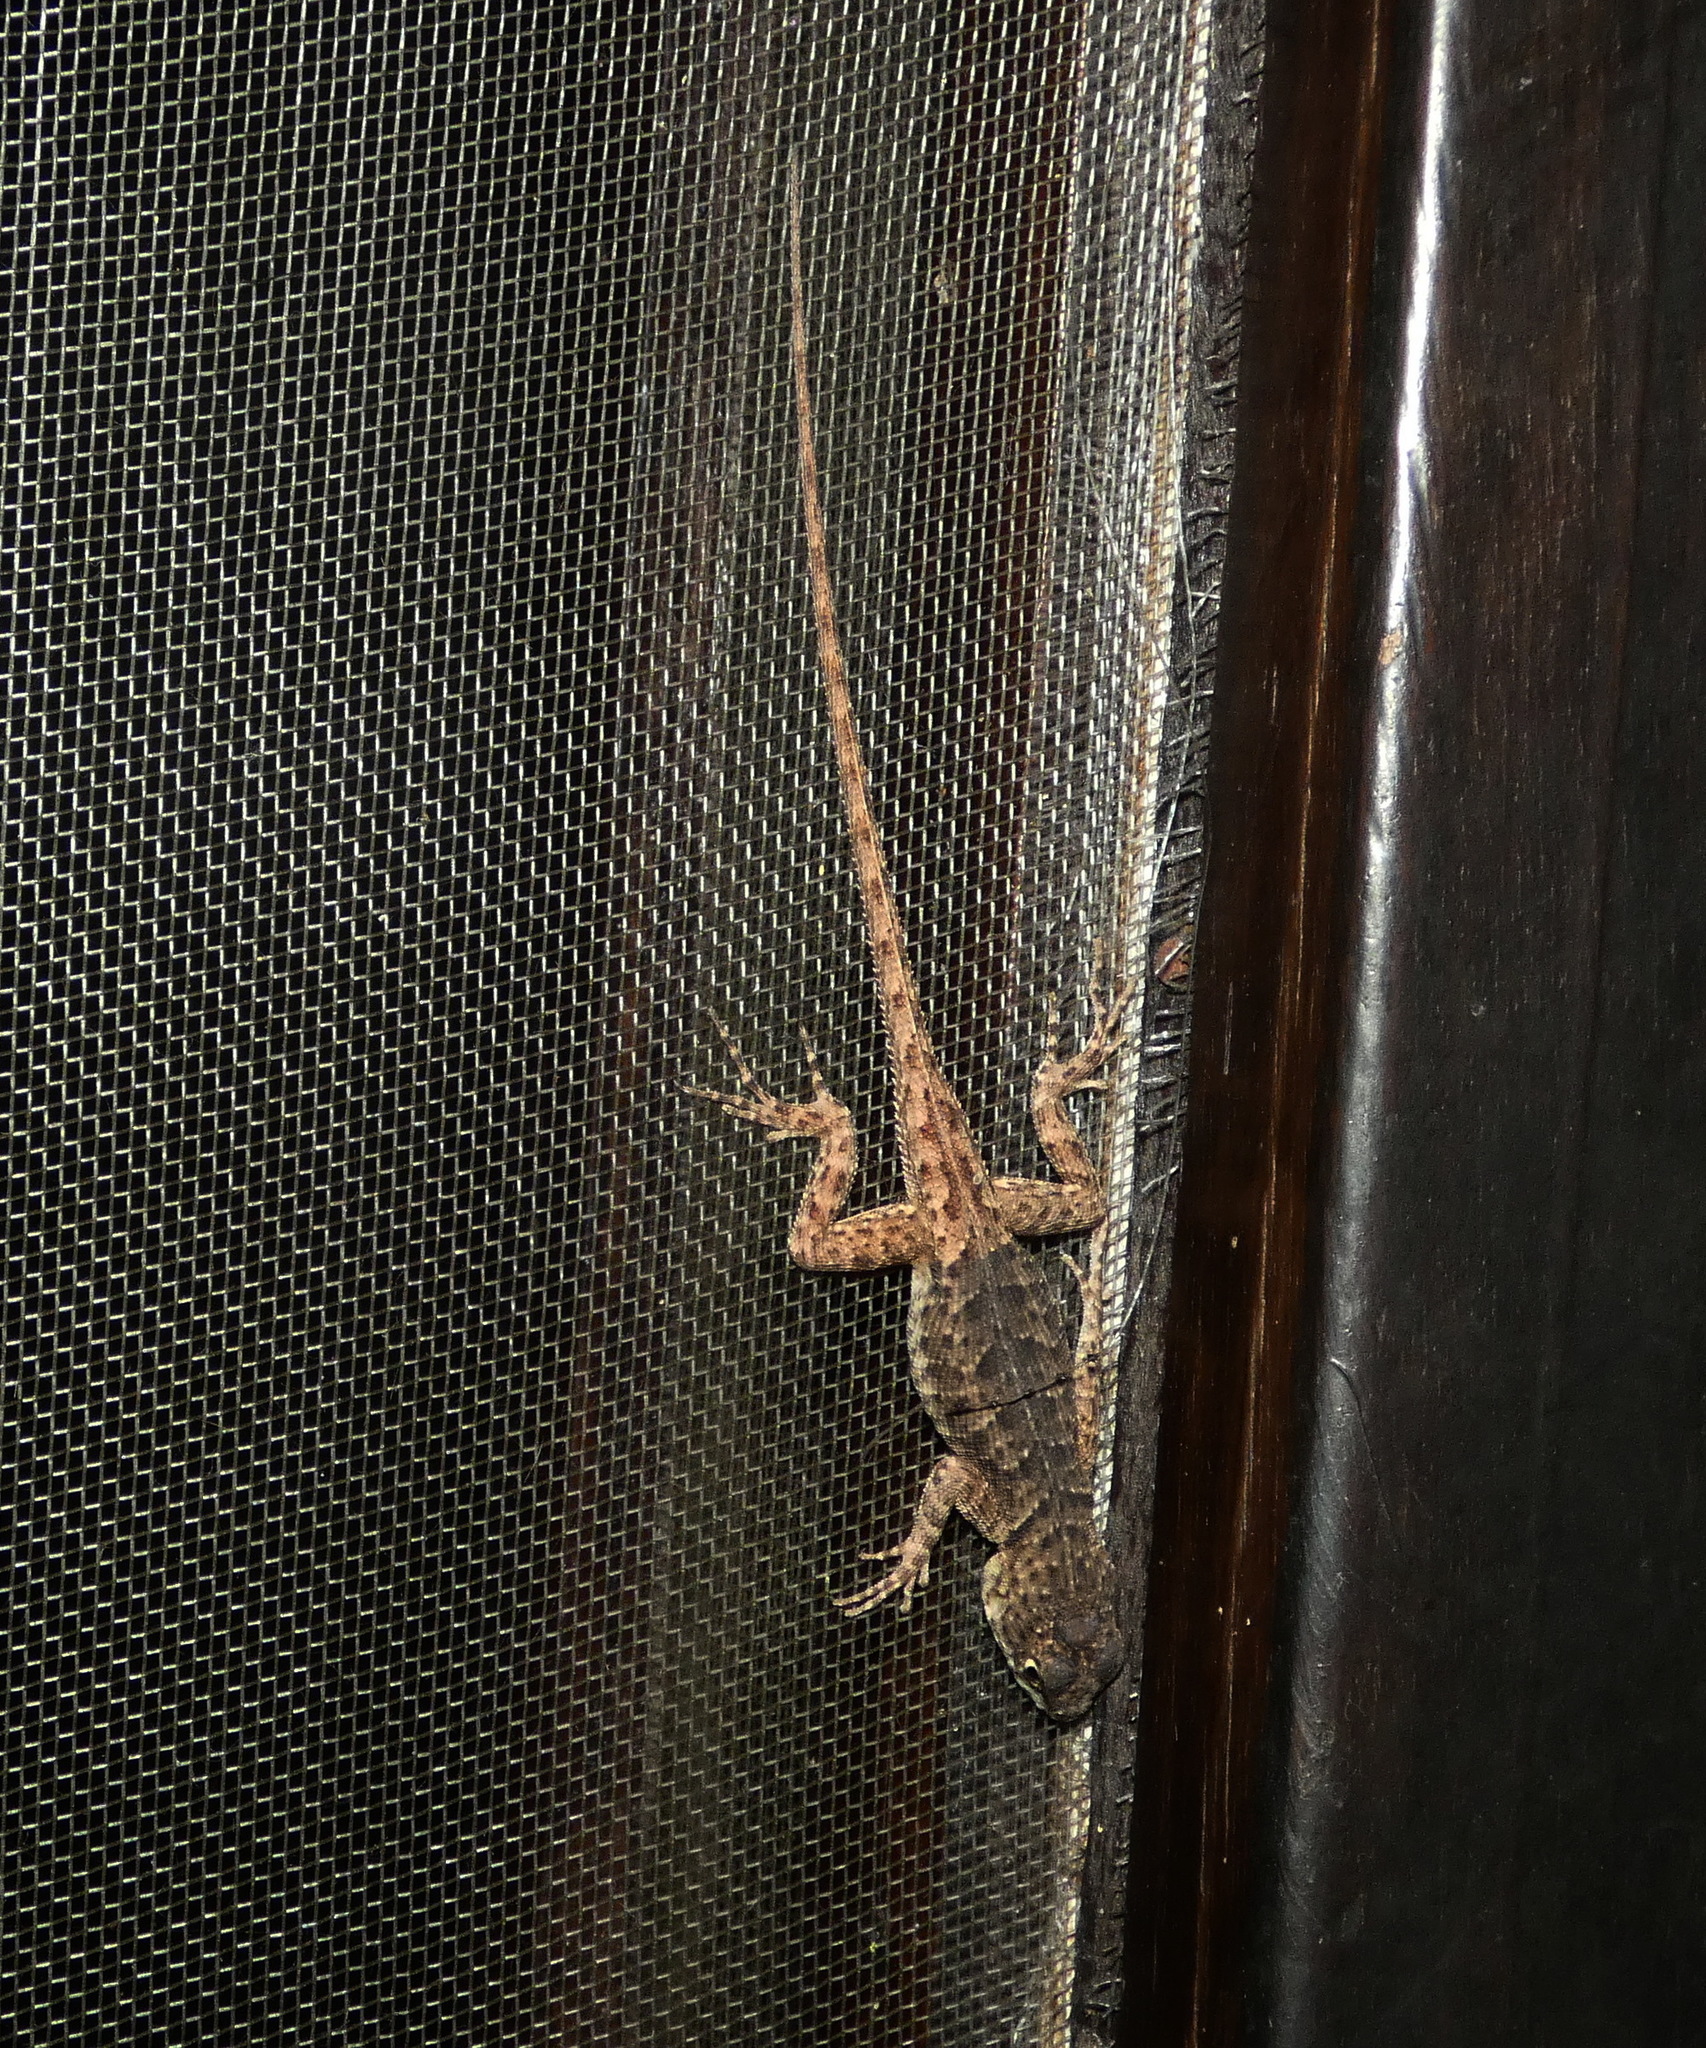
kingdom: Animalia
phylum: Chordata
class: Squamata
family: Tropiduridae
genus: Tropidurus
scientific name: Tropidurus hispidus
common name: Peters' lava lizard
